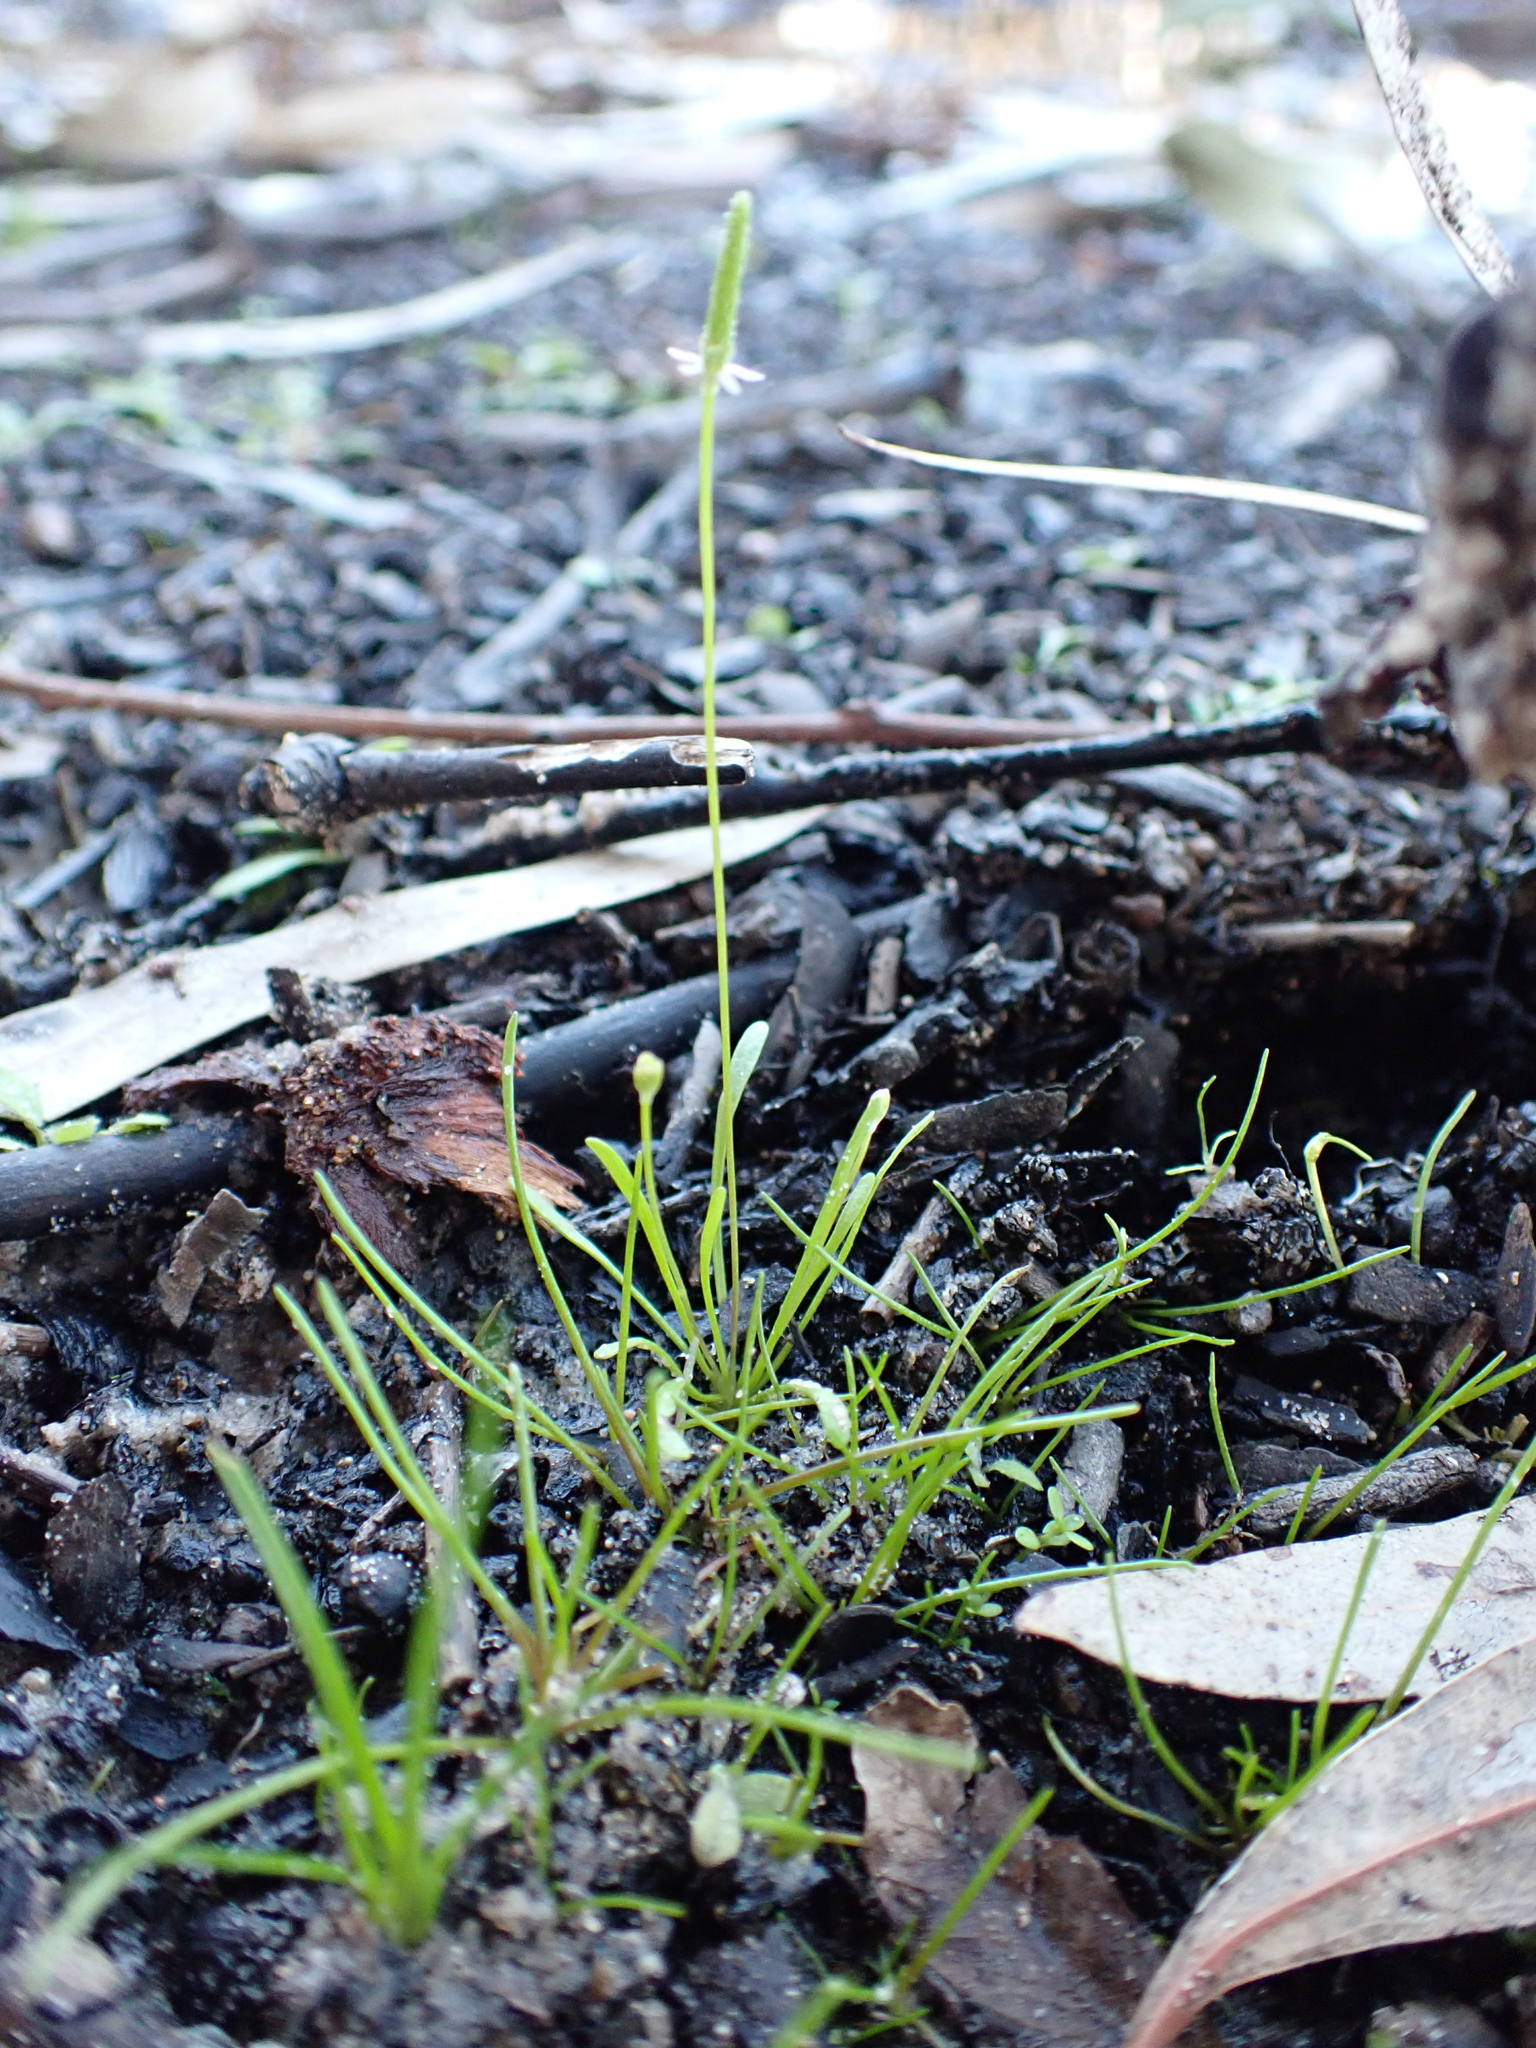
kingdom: Plantae
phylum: Tracheophyta
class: Magnoliopsida
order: Ranunculales
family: Ranunculaceae
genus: Myosurus
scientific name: Myosurus australis
